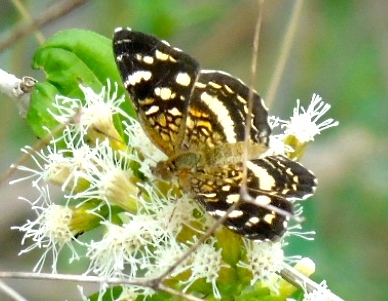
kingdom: Animalia
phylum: Arthropoda
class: Insecta
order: Lepidoptera
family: Nymphalidae
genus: Anthanassa
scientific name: Anthanassa tulcis
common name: Pale-banded crescent
